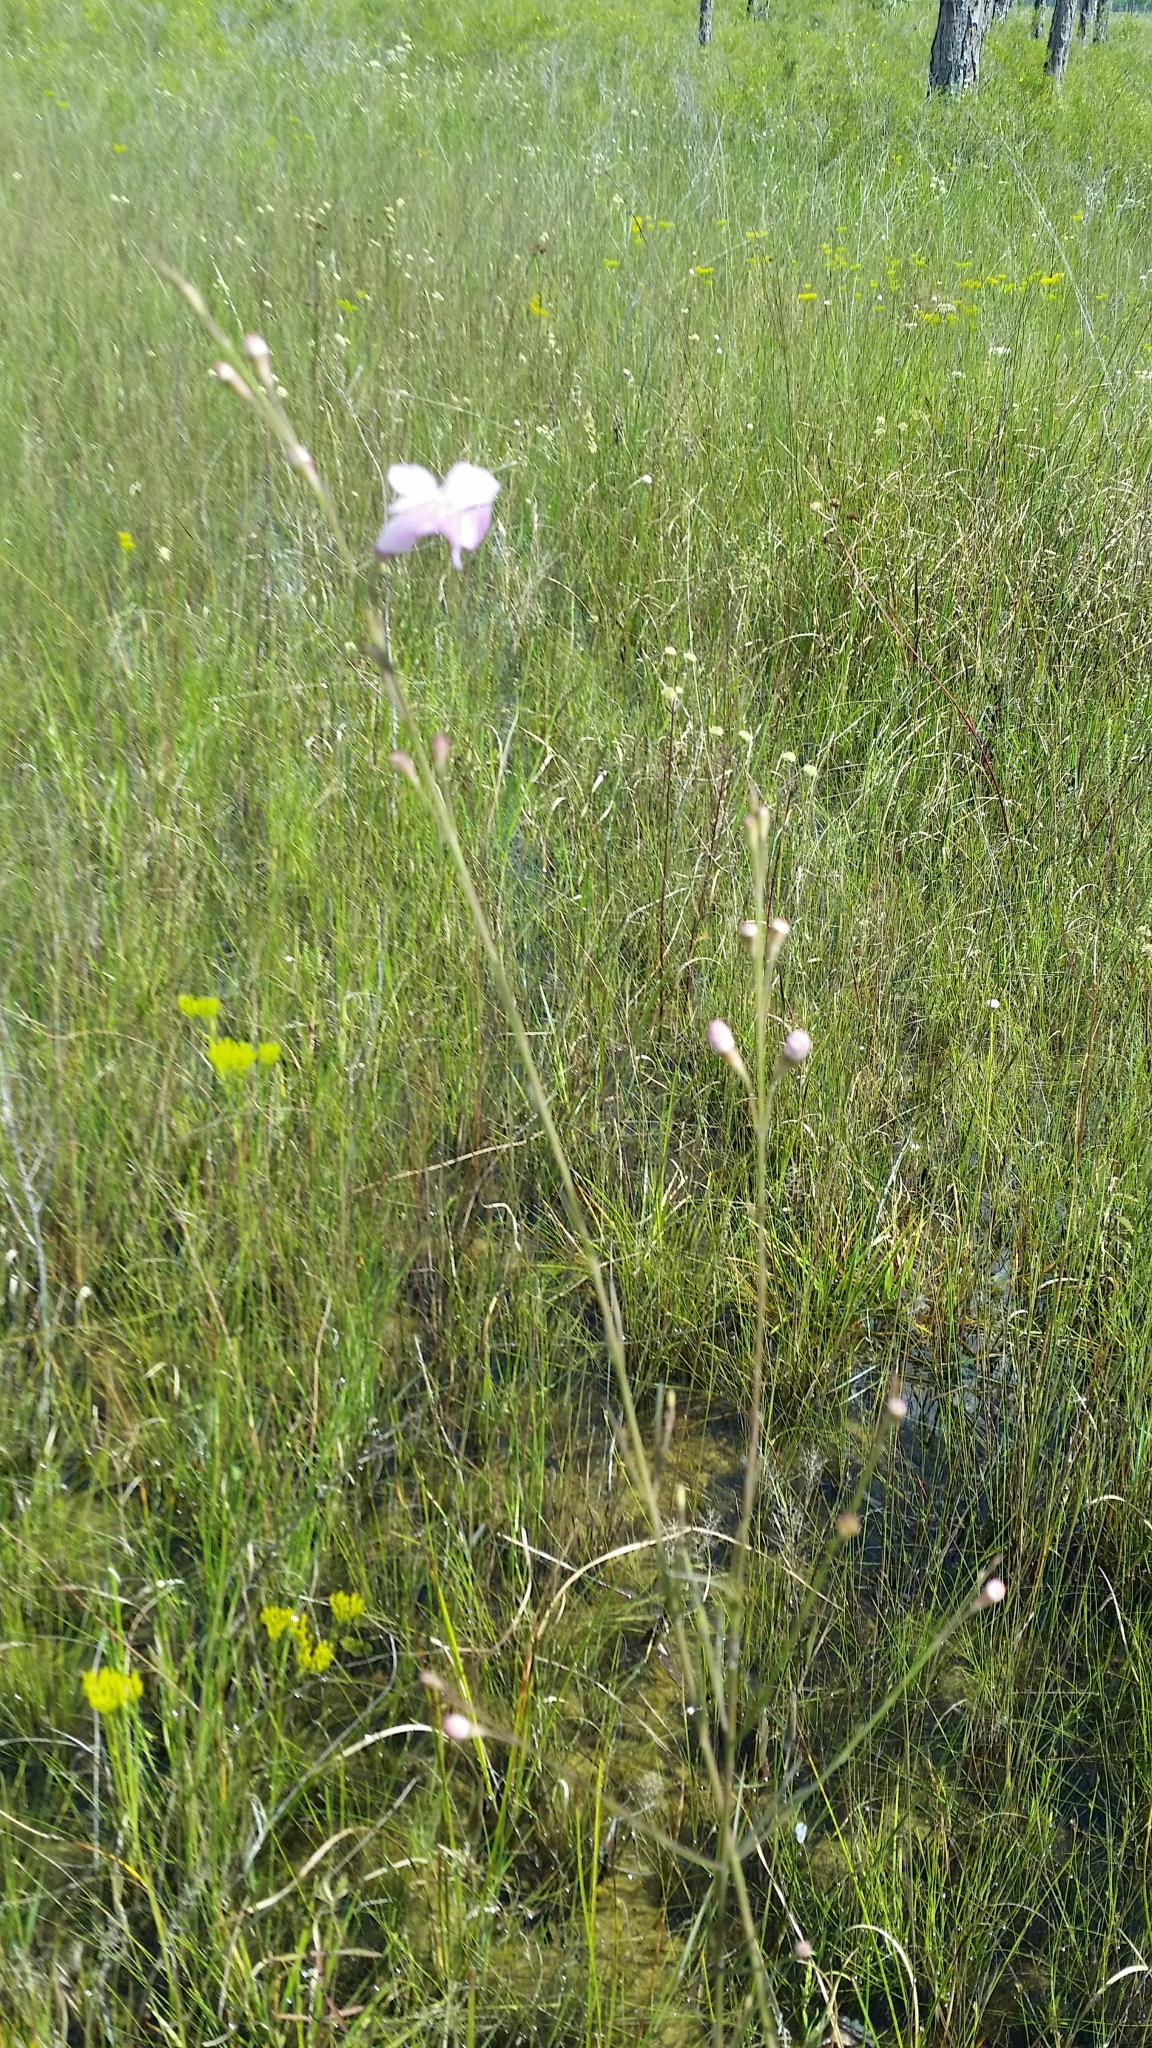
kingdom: Plantae
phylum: Tracheophyta
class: Magnoliopsida
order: Lamiales
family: Orobanchaceae
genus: Agalinis
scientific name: Agalinis linifolia
